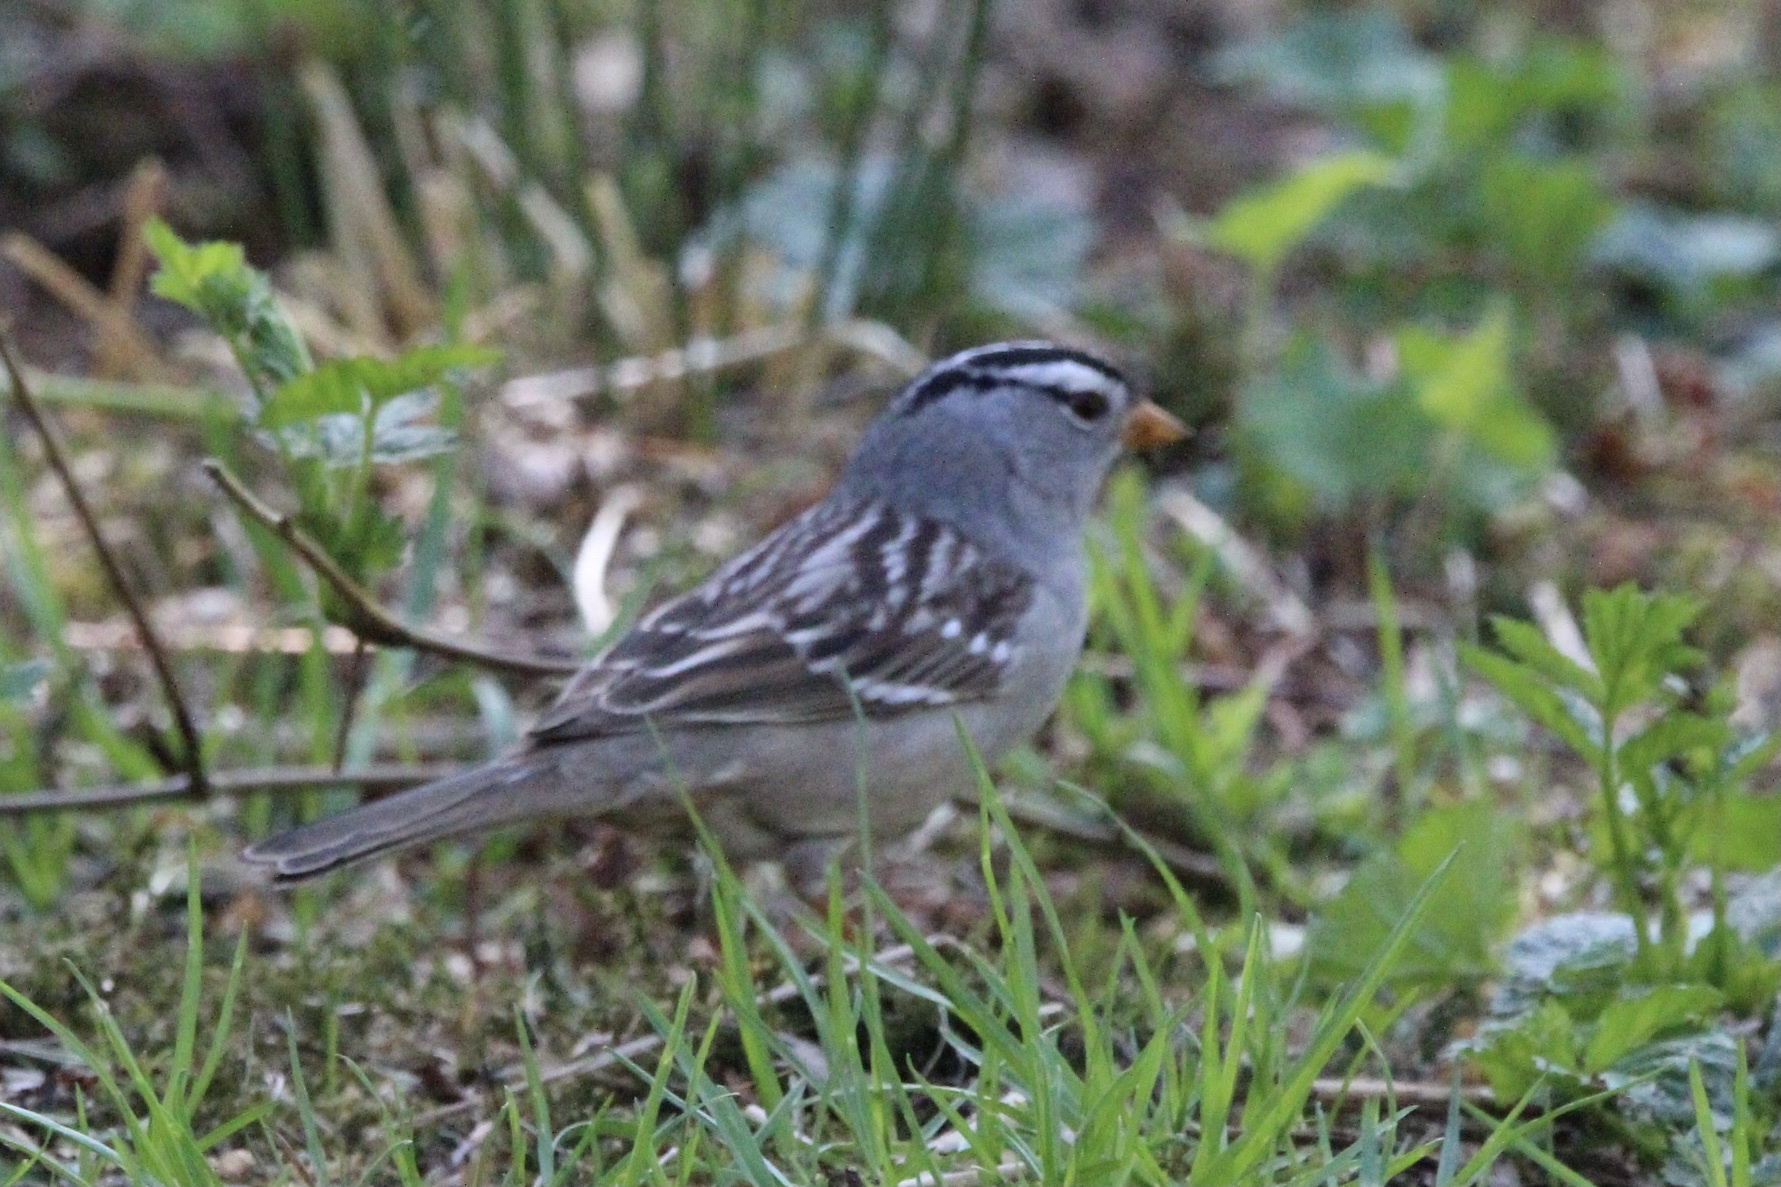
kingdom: Animalia
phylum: Chordata
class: Aves
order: Passeriformes
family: Passerellidae
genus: Zonotrichia
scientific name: Zonotrichia leucophrys
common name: White-crowned sparrow
